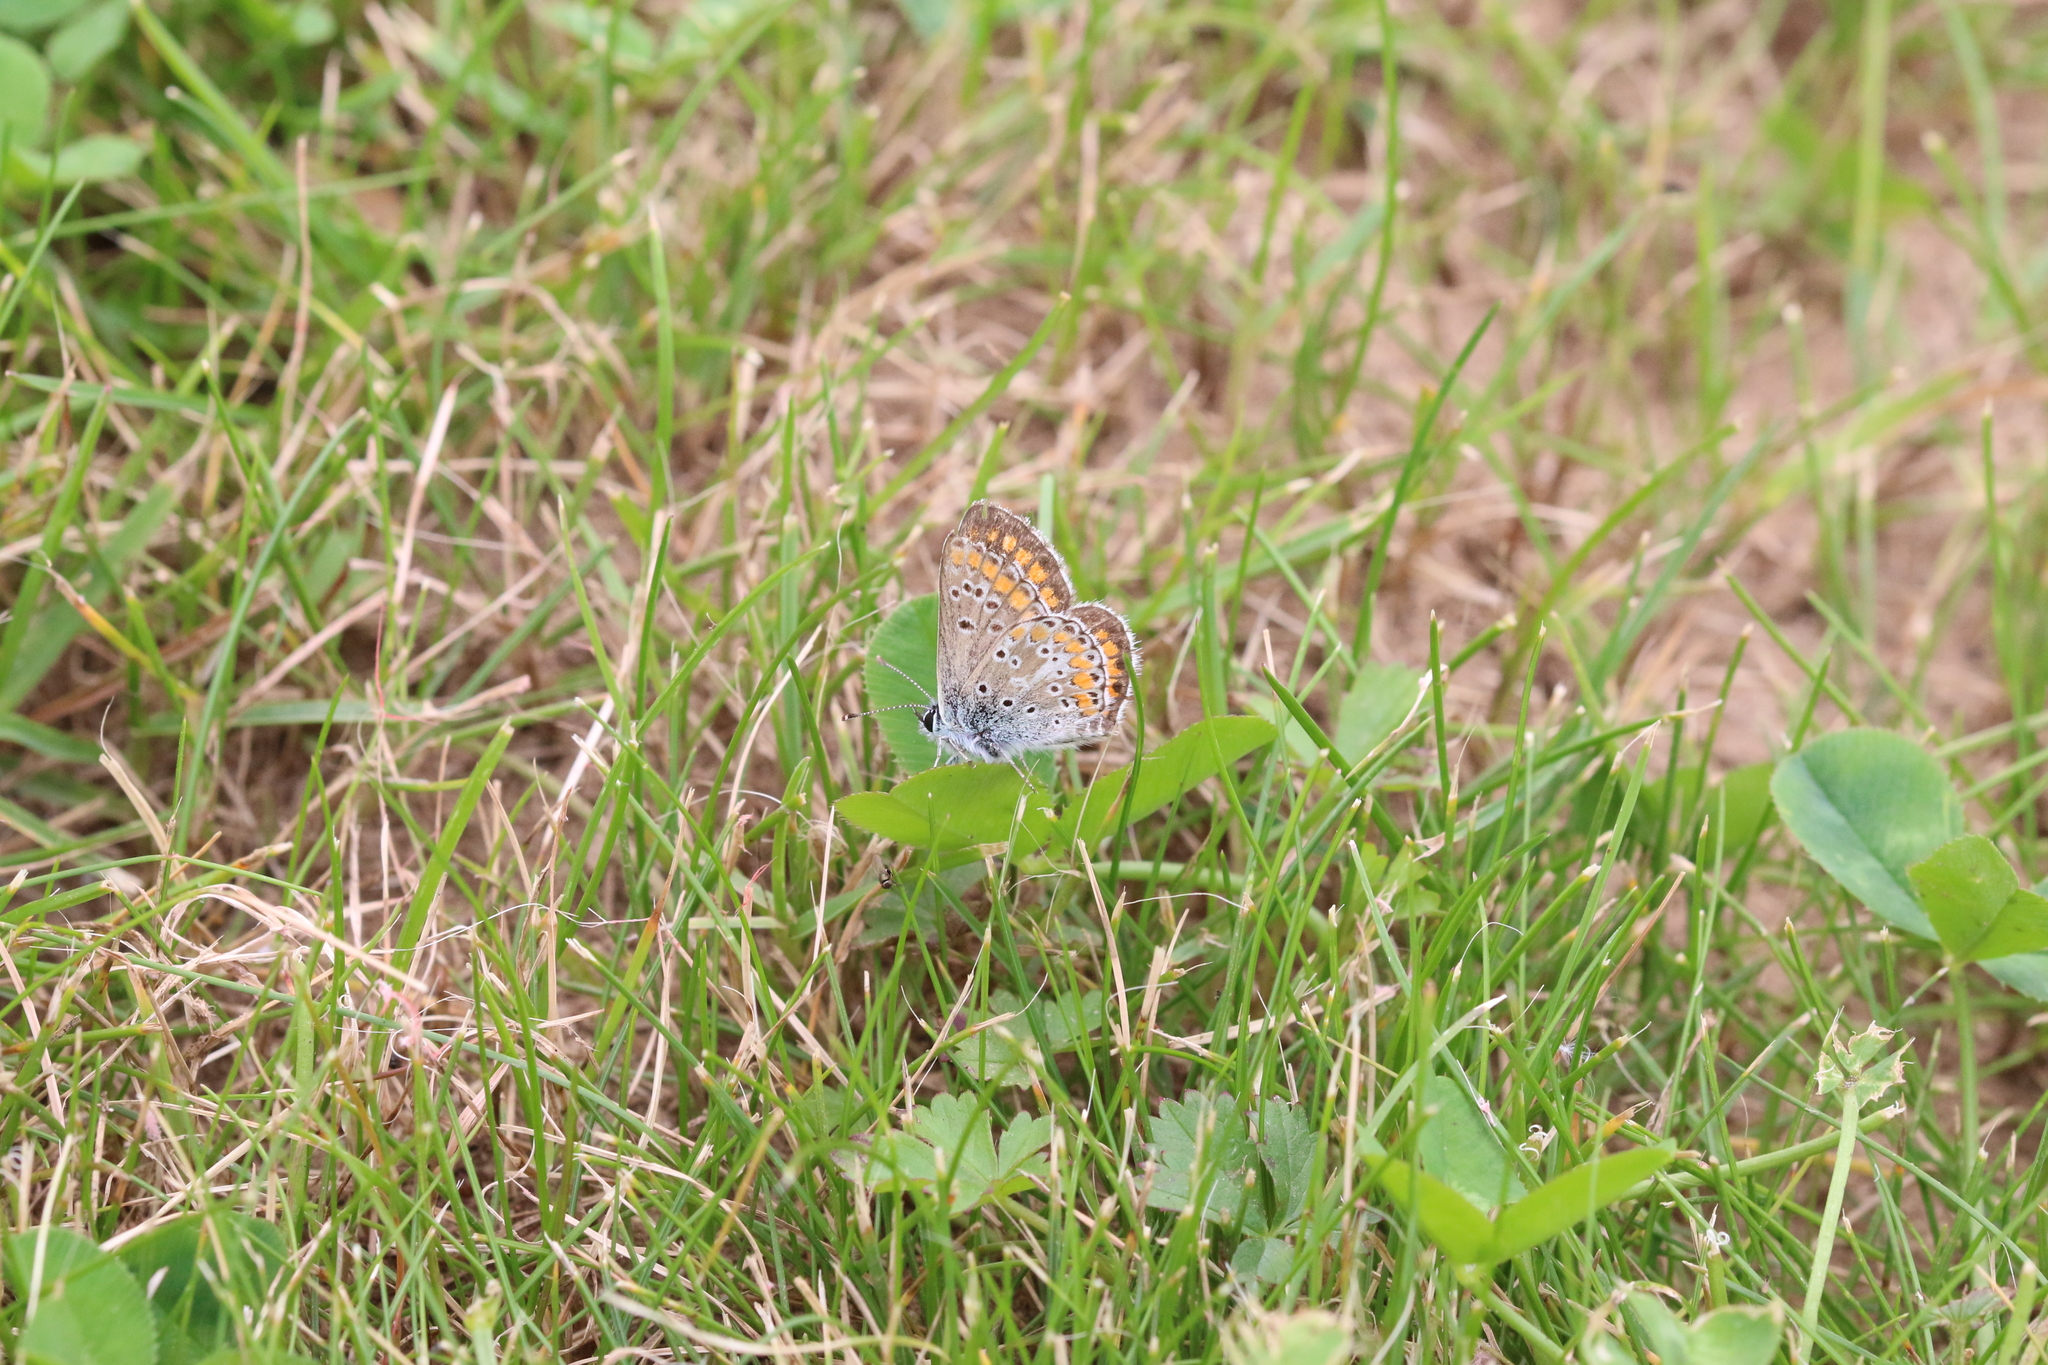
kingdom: Animalia
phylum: Arthropoda
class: Insecta
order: Lepidoptera
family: Lycaenidae
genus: Aricia
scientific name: Aricia agestis
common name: Brown argus
